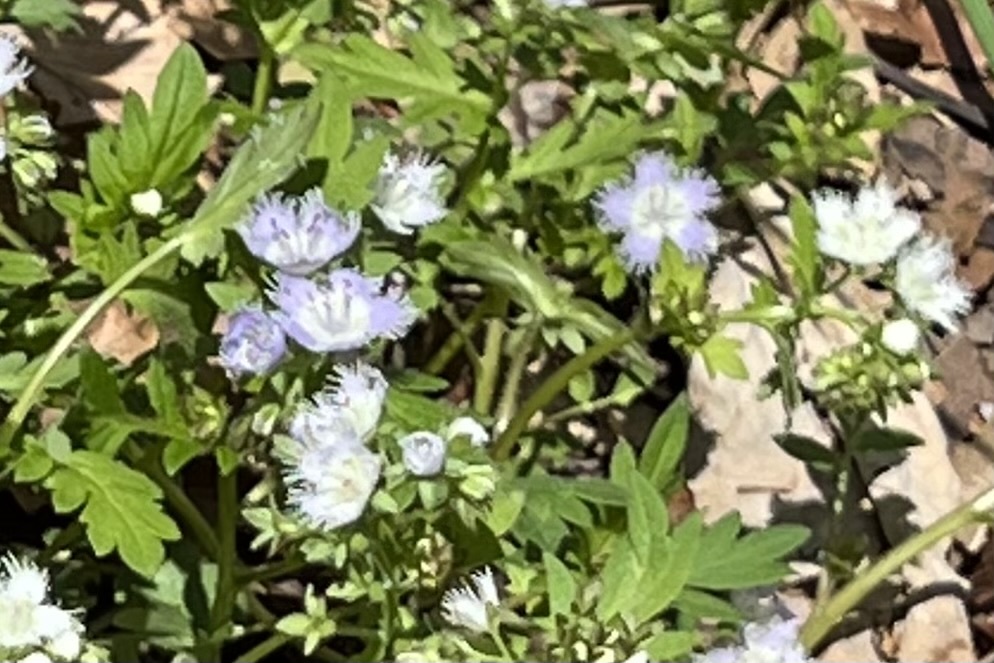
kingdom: Plantae
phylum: Tracheophyta
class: Magnoliopsida
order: Boraginales
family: Hydrophyllaceae
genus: Phacelia
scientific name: Phacelia purshii
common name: Miami-mist
